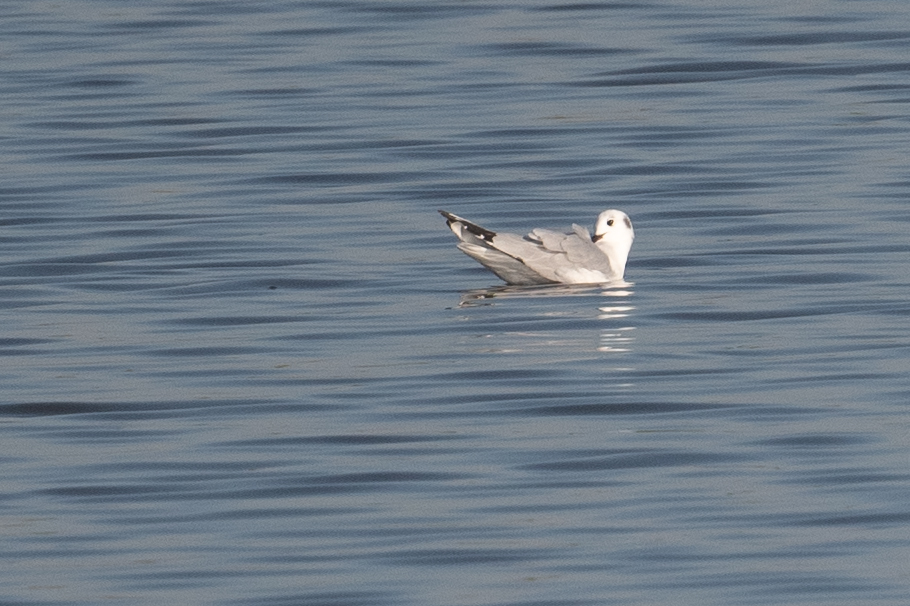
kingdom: Animalia
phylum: Chordata
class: Aves
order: Charadriiformes
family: Laridae
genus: Chroicocephalus
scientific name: Chroicocephalus philadelphia
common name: Bonaparte's gull
